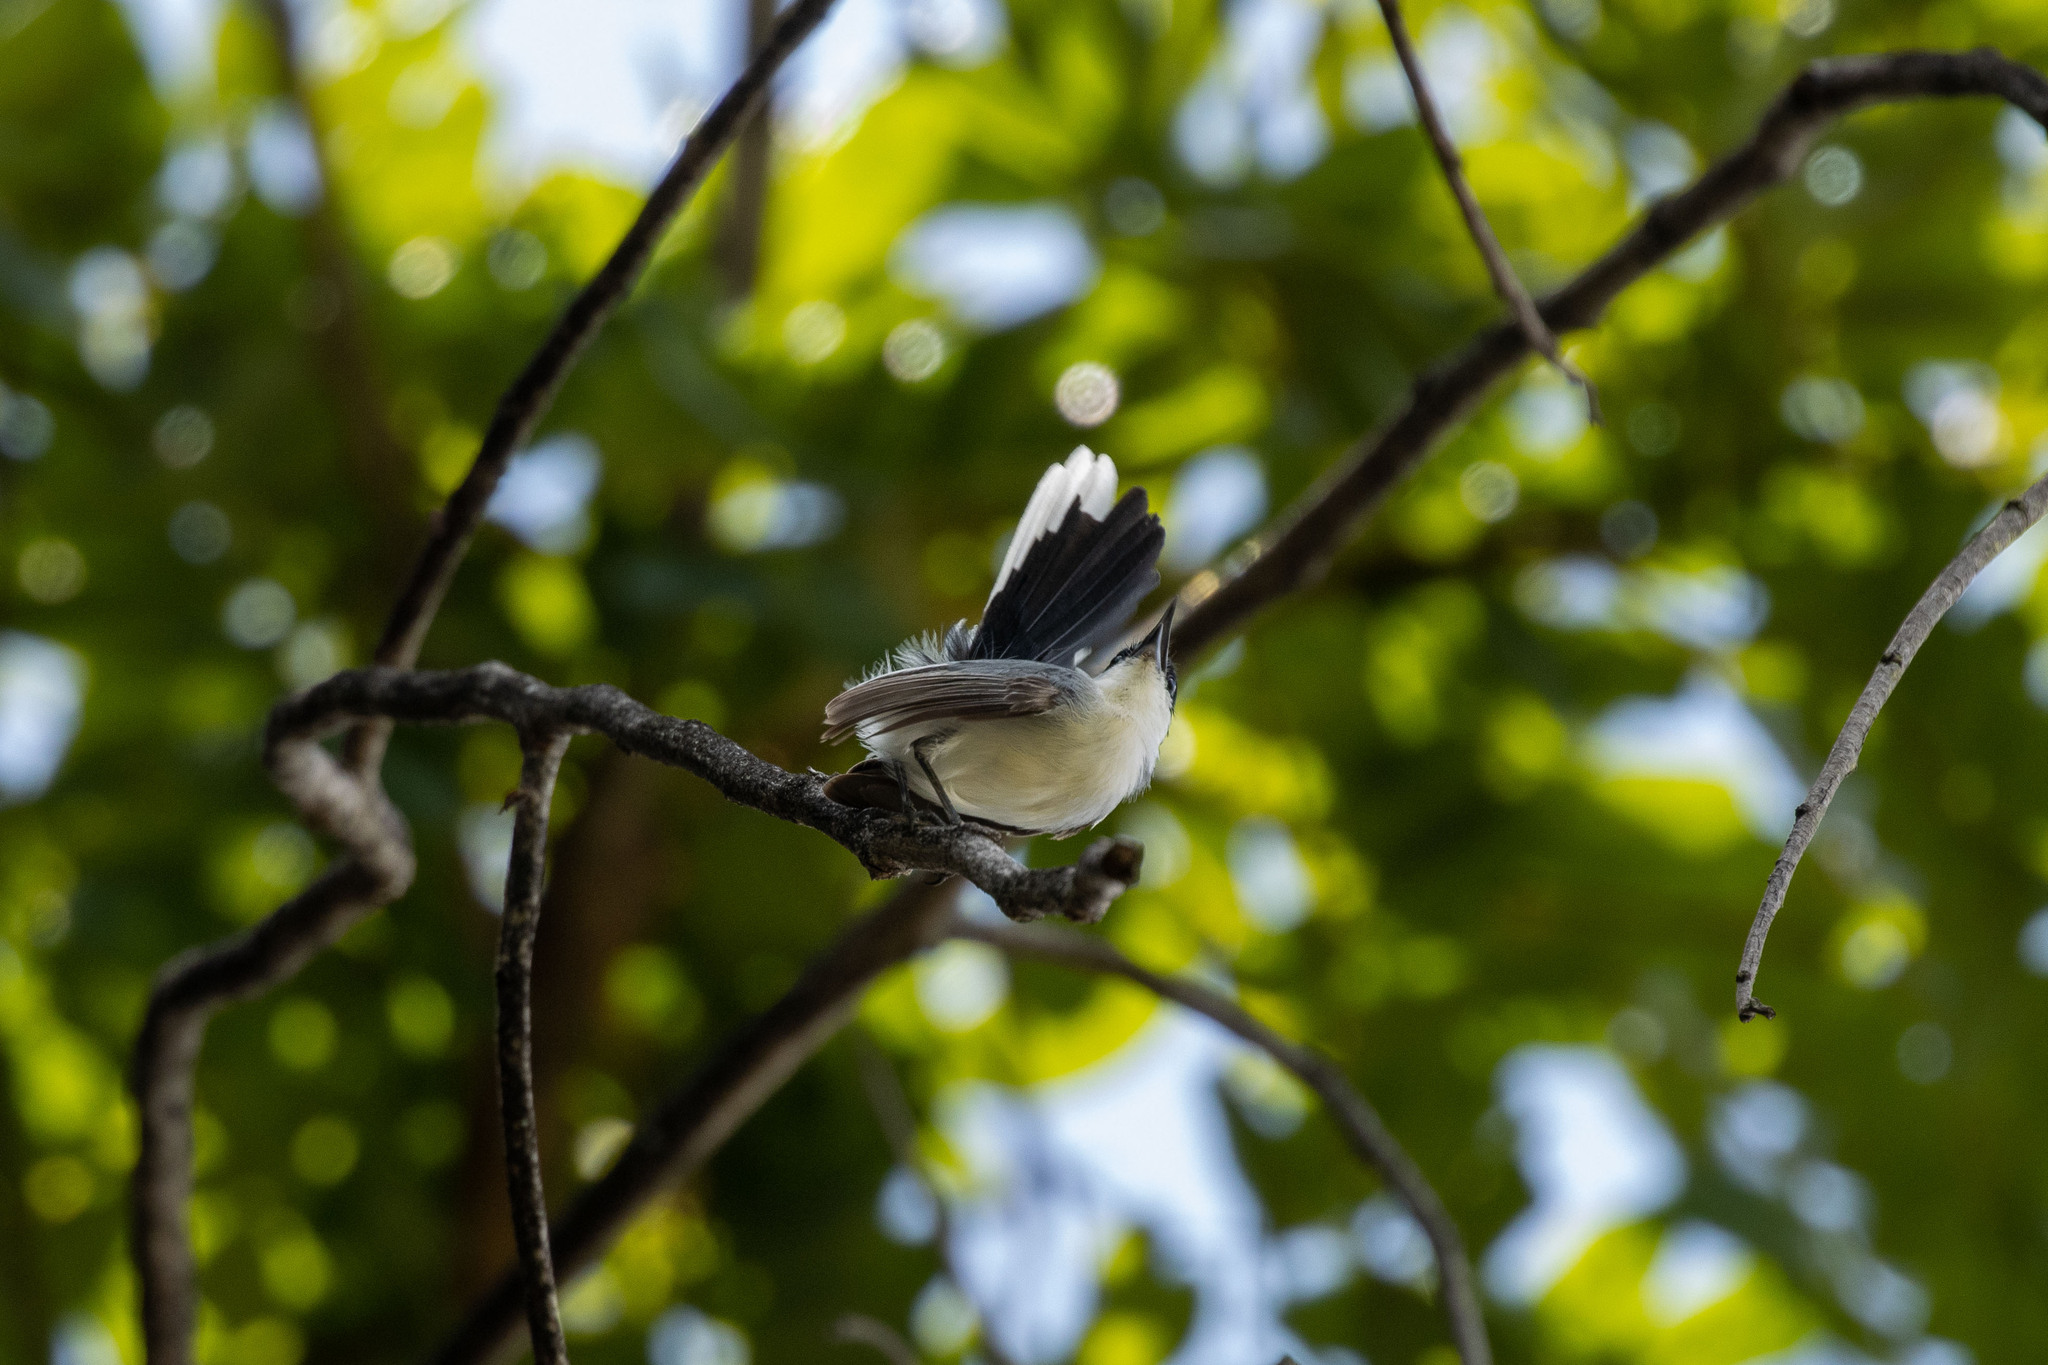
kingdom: Animalia
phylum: Chordata
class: Aves
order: Passeriformes
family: Polioptilidae
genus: Polioptila
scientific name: Polioptila plumbea
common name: Tropical gnatcatcher
